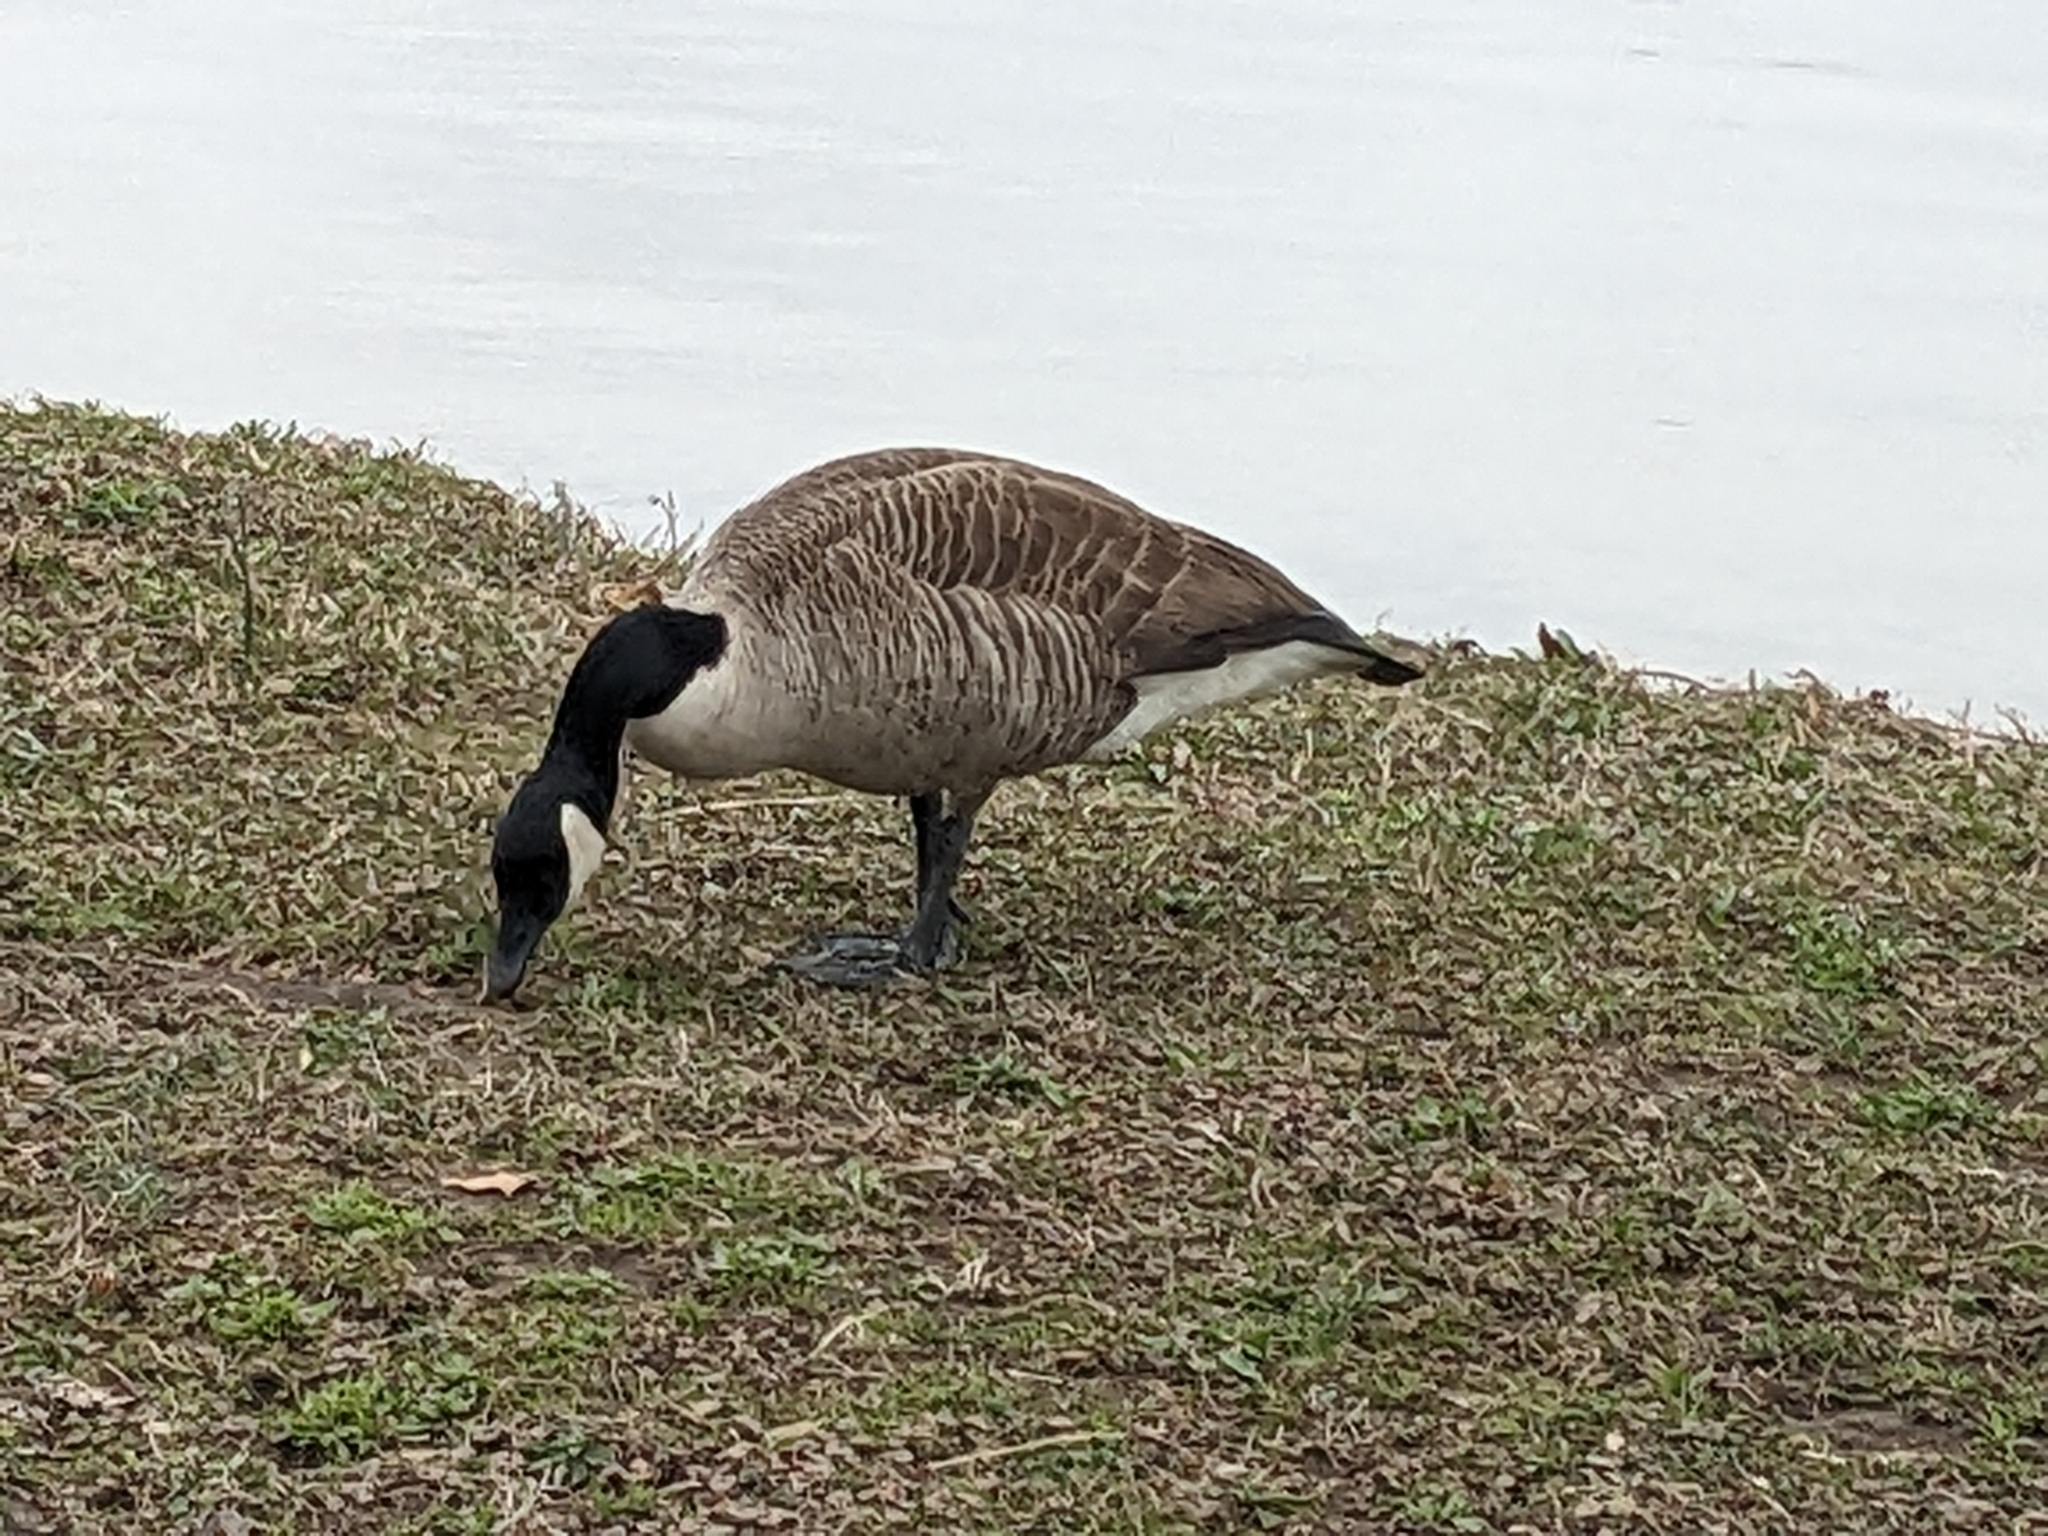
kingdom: Animalia
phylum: Chordata
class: Aves
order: Anseriformes
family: Anatidae
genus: Branta
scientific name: Branta canadensis
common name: Canada goose
